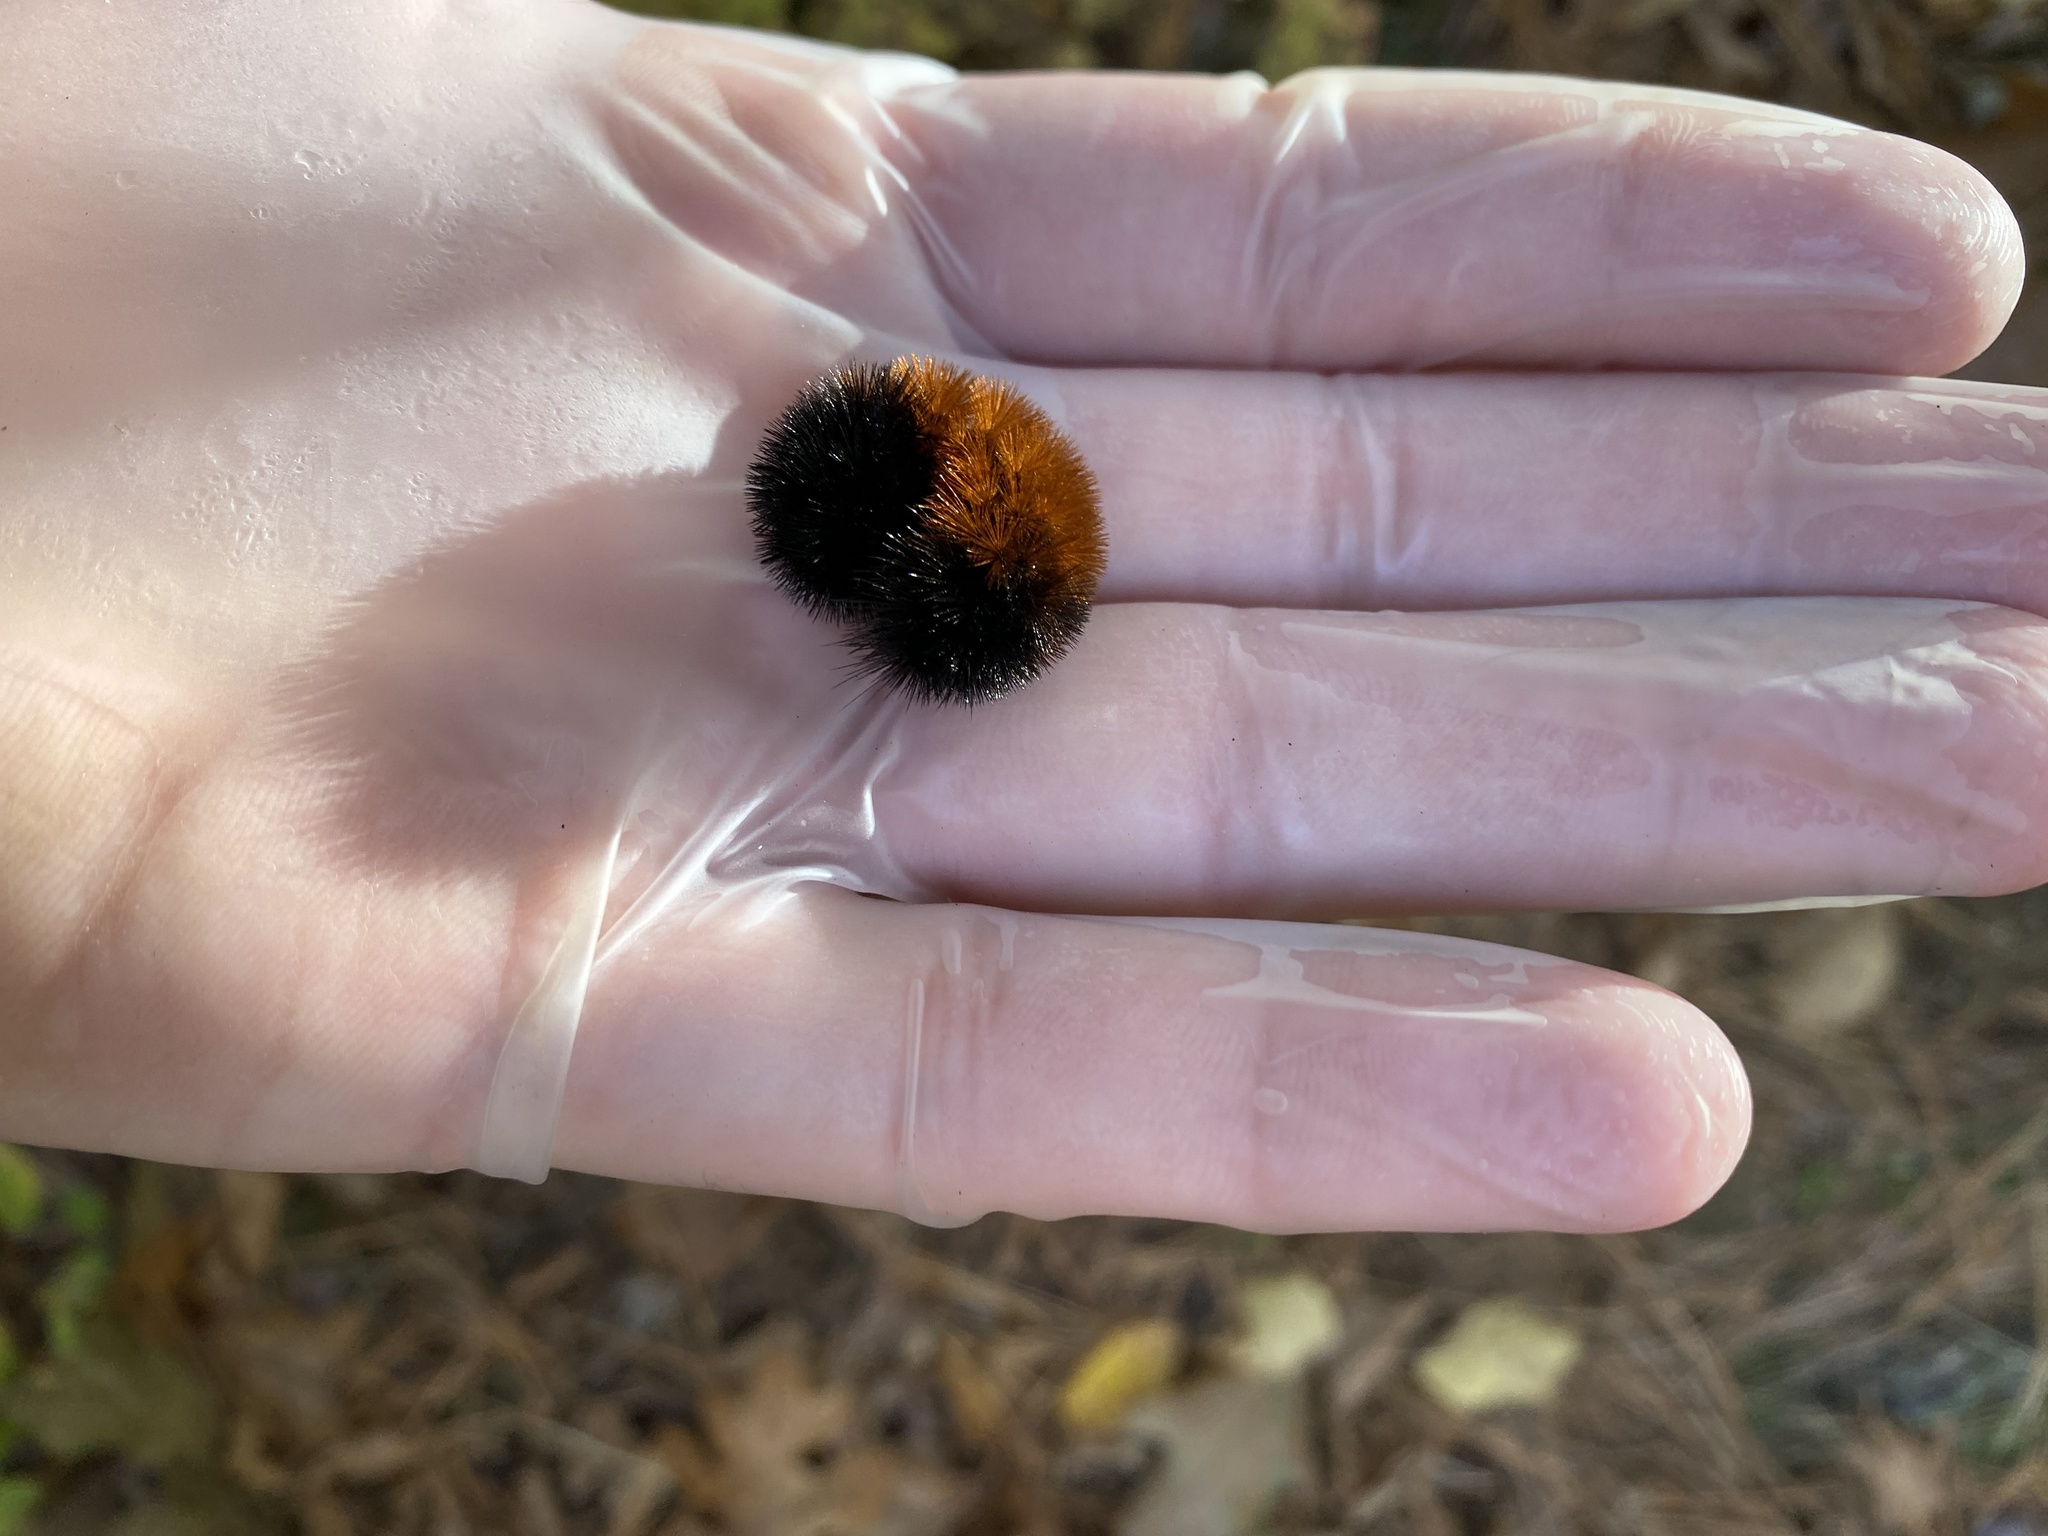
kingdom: Animalia
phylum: Arthropoda
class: Insecta
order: Lepidoptera
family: Erebidae
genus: Pyrrharctia
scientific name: Pyrrharctia isabella
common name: Isabella tiger moth
